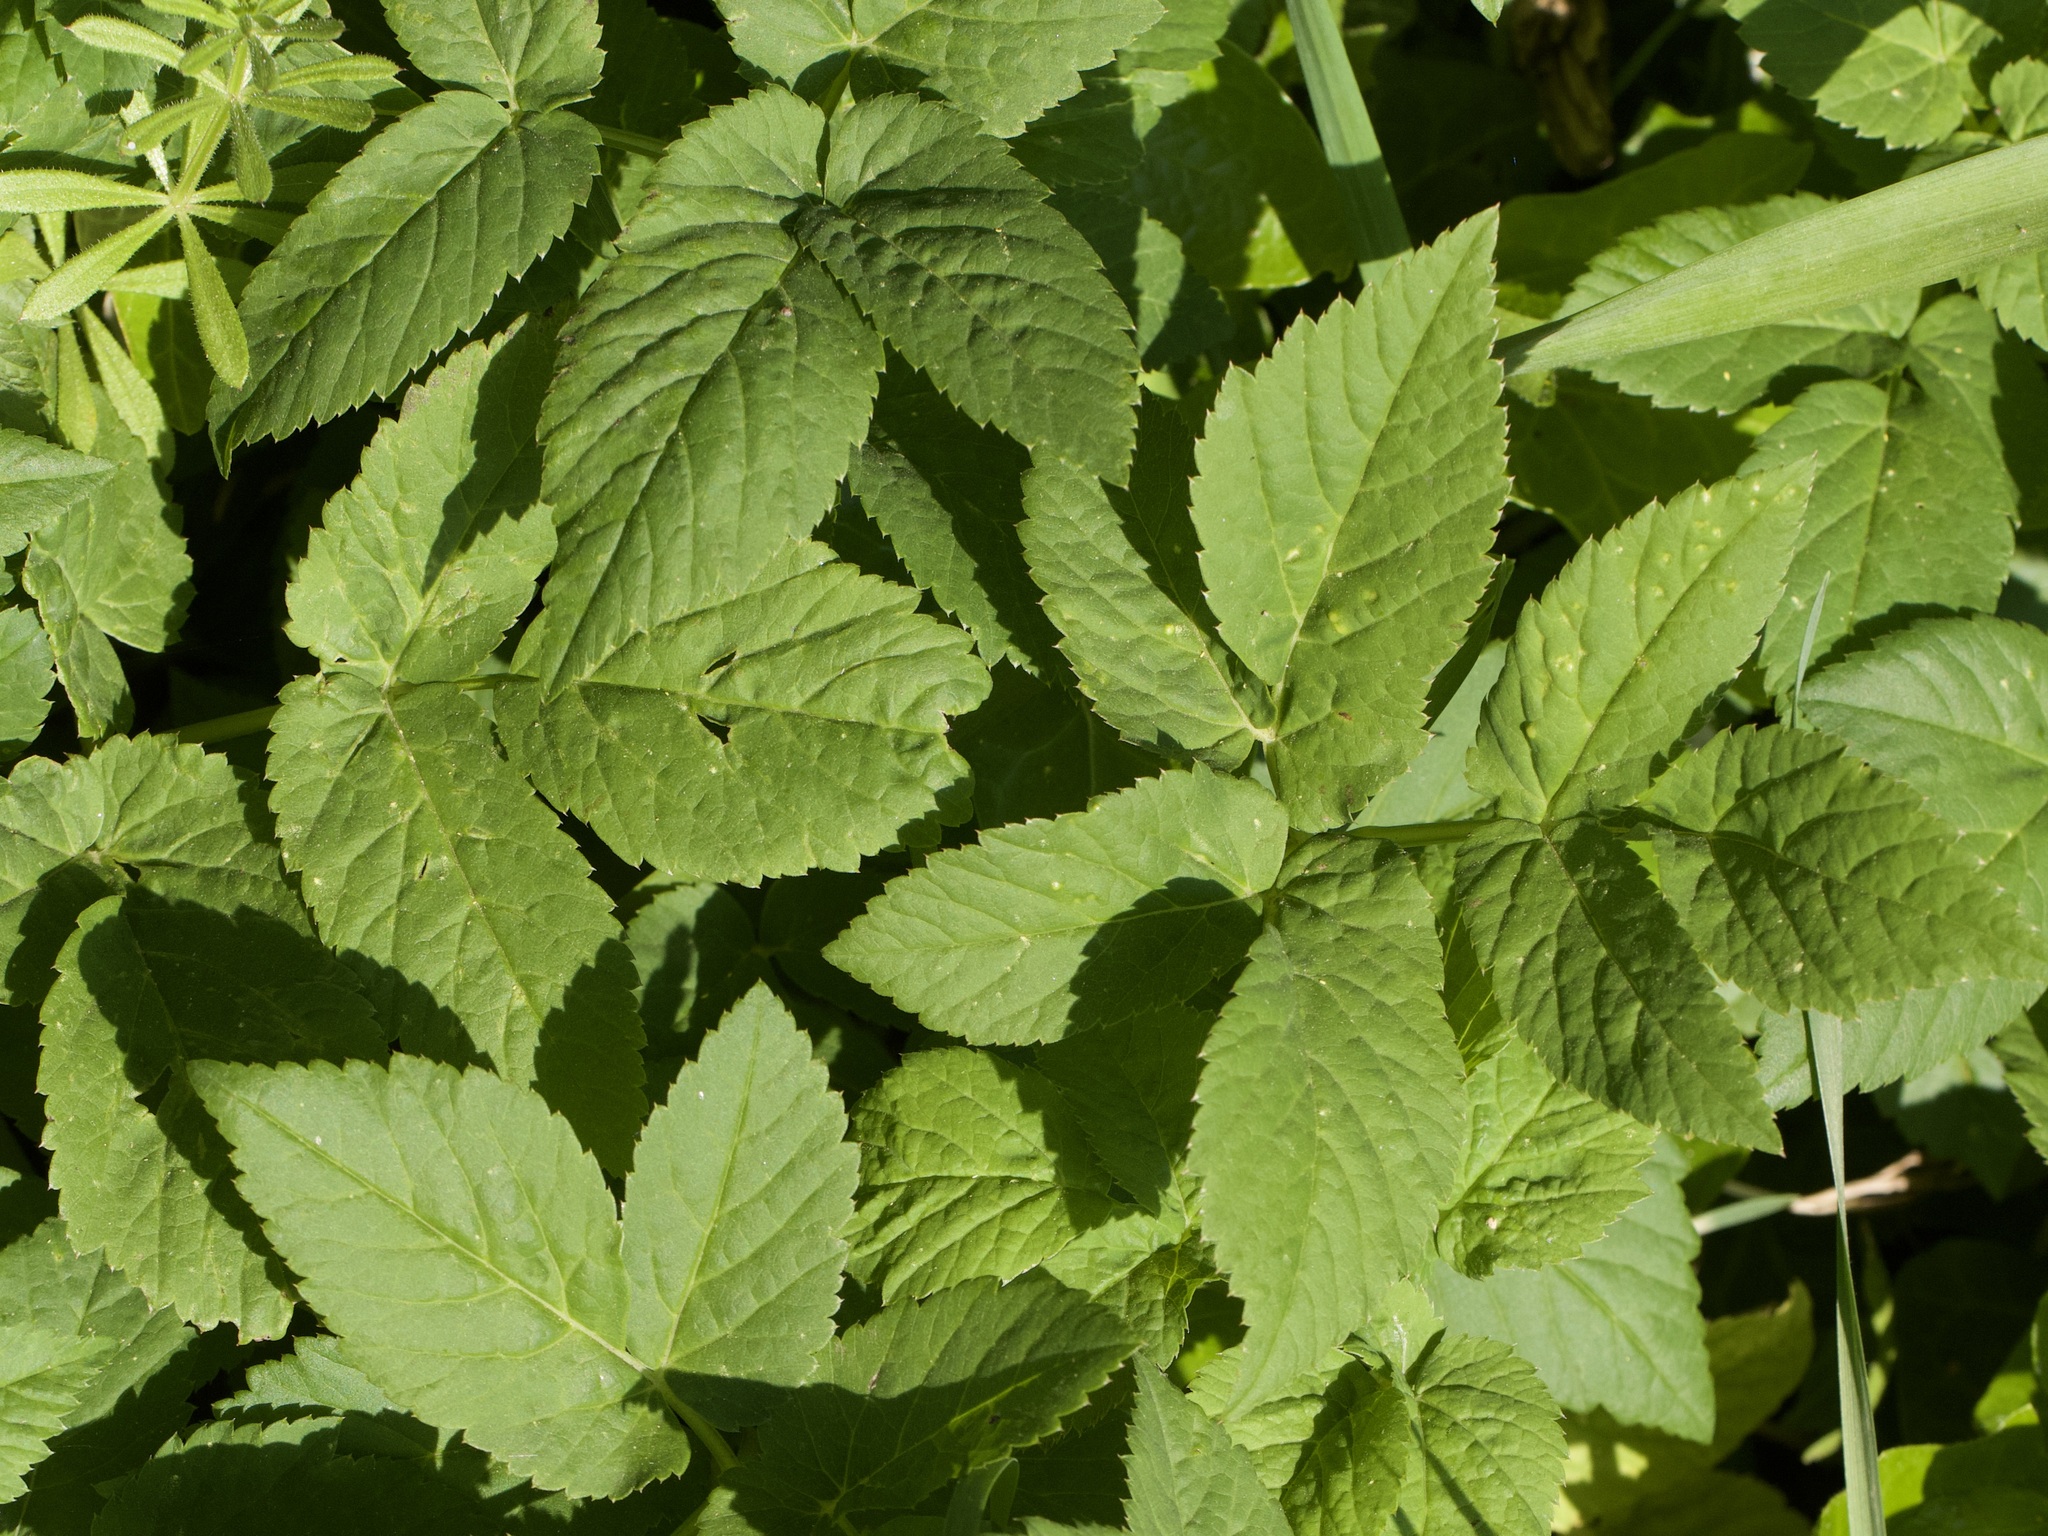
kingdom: Plantae
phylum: Tracheophyta
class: Magnoliopsida
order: Apiales
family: Apiaceae
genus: Aegopodium
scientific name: Aegopodium podagraria
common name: Ground-elder
